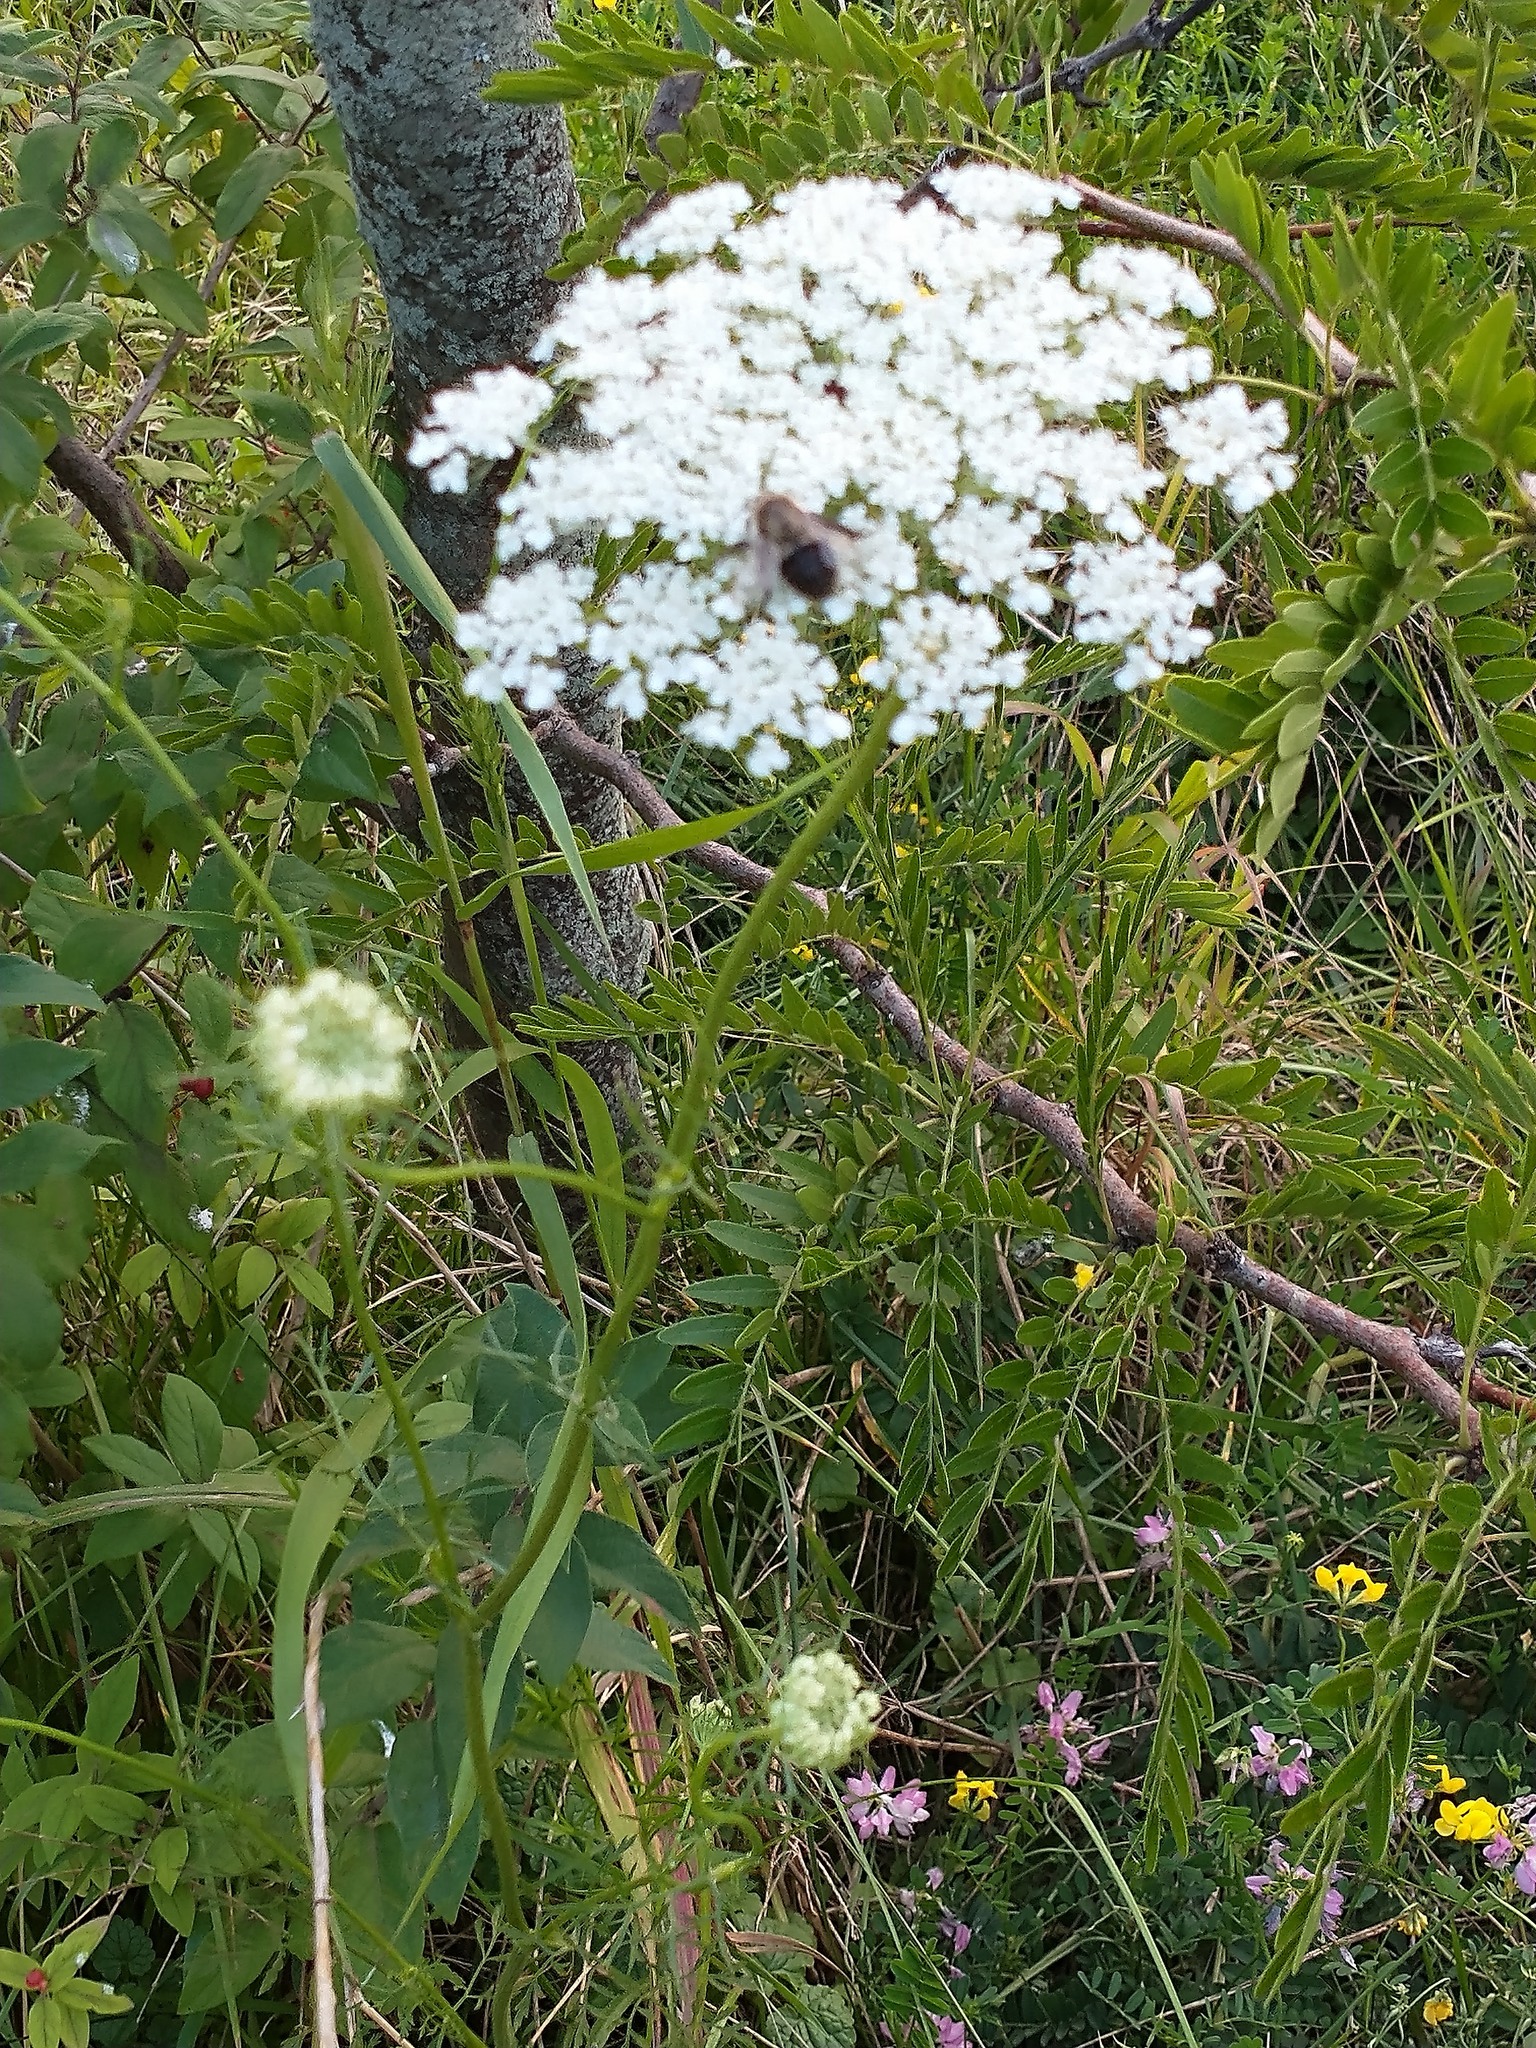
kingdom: Plantae
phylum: Tracheophyta
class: Magnoliopsida
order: Apiales
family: Apiaceae
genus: Daucus
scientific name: Daucus carota
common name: Wild carrot
